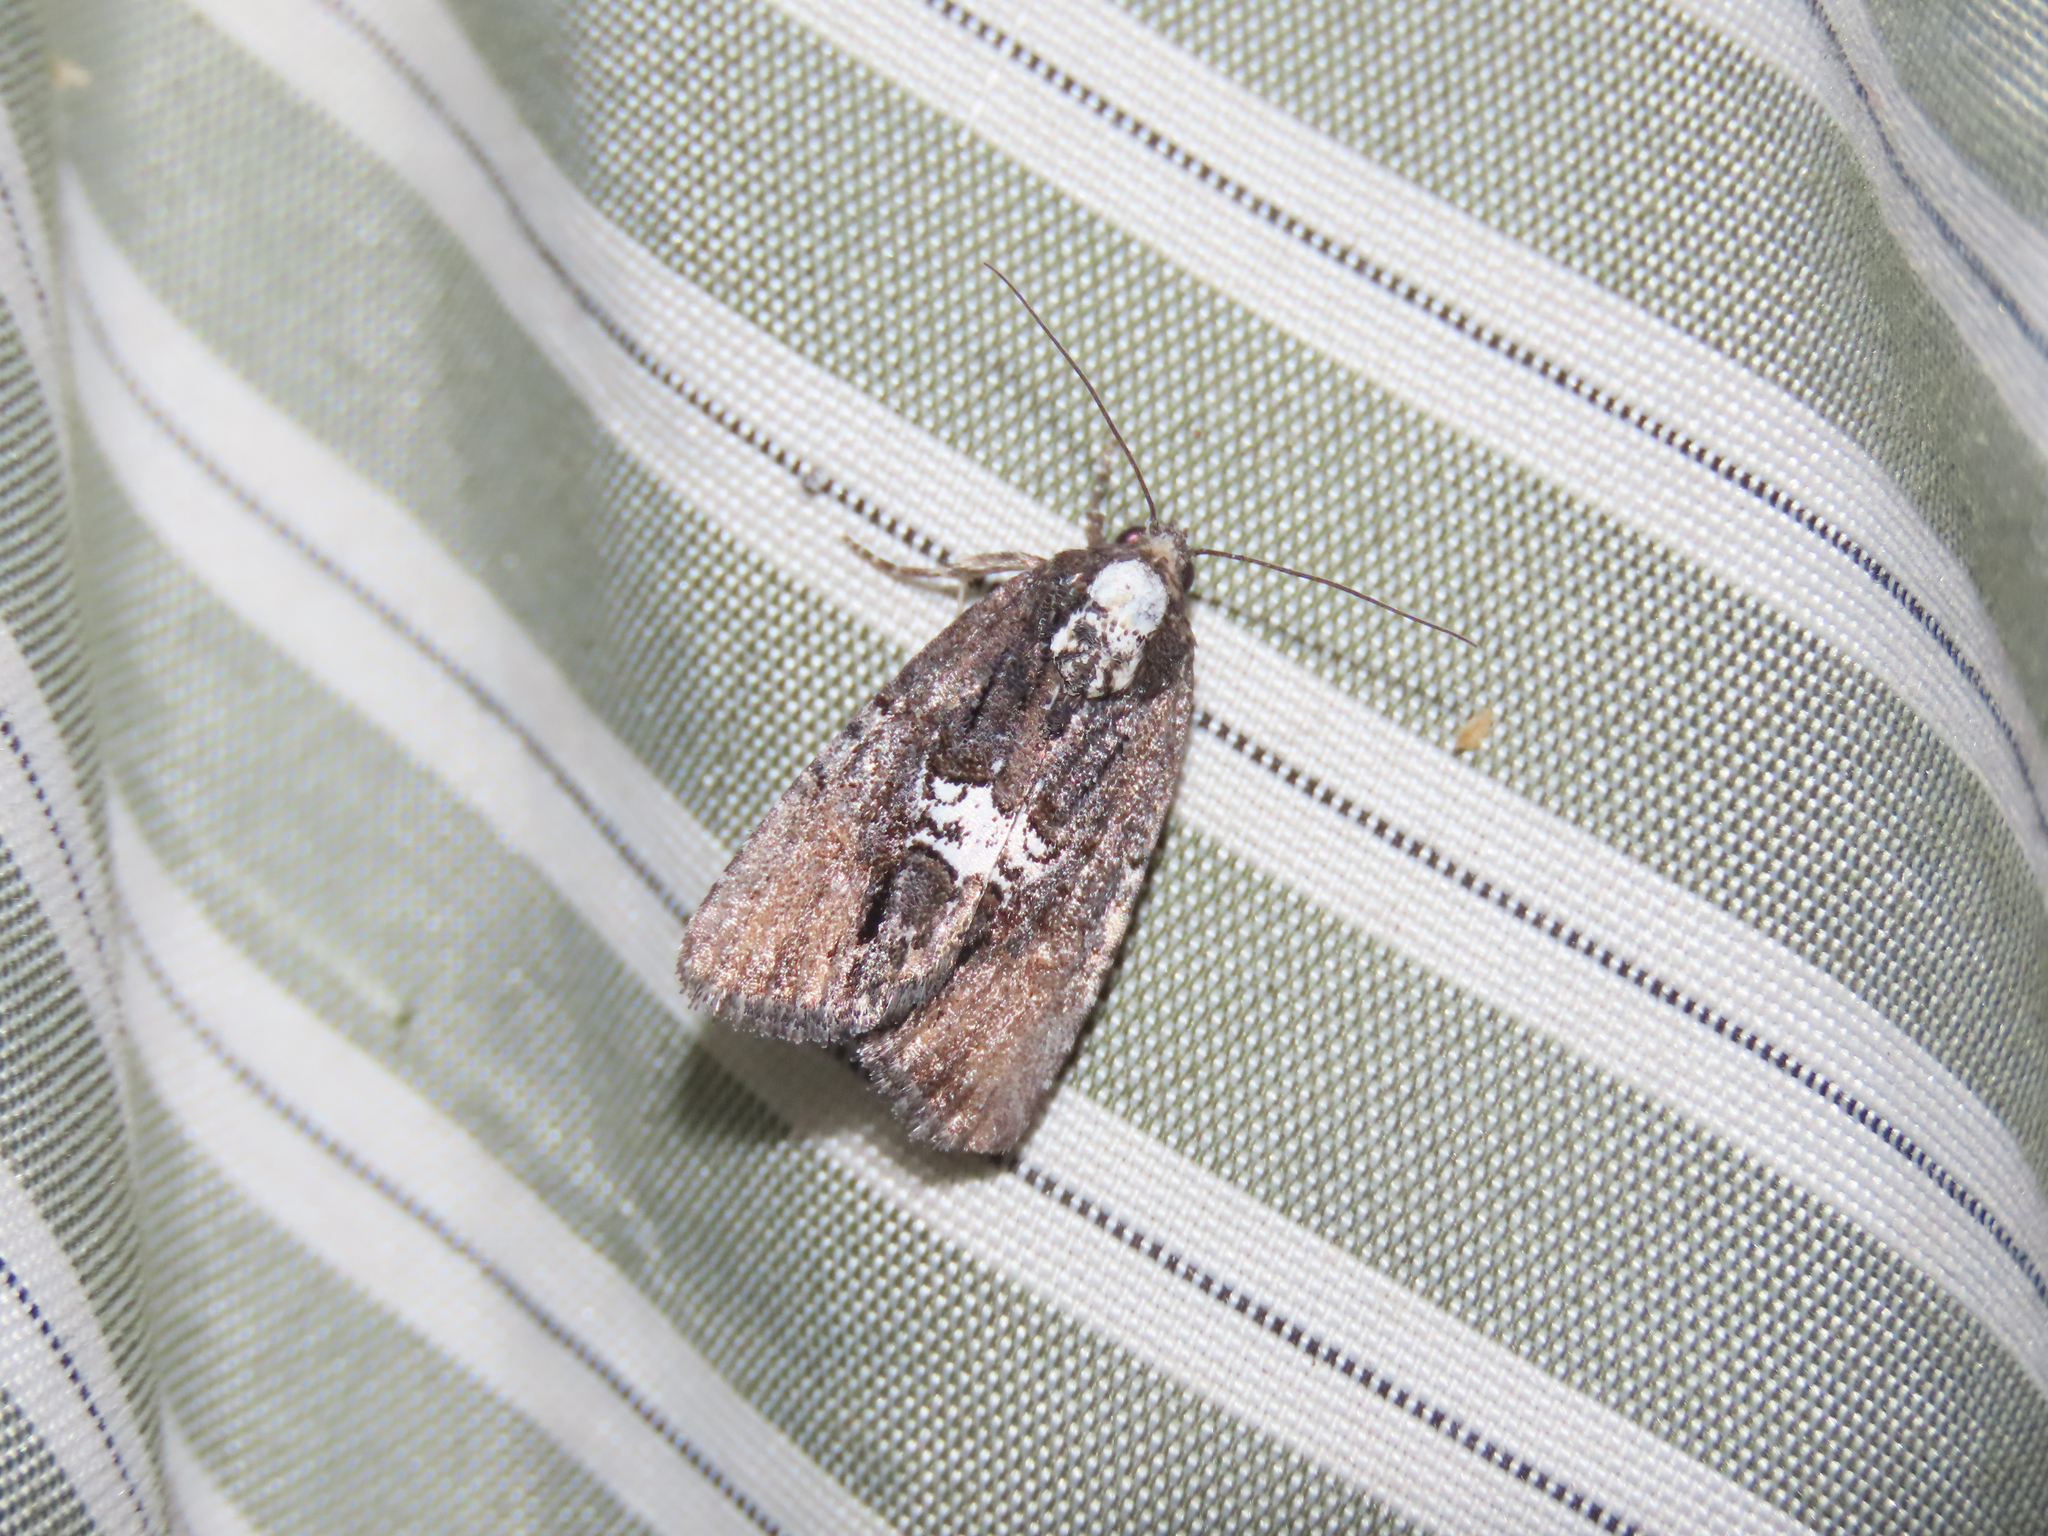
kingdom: Animalia
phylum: Arthropoda
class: Insecta
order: Lepidoptera
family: Noctuidae
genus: Bryolymnia
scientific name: Bryolymnia semifascia
